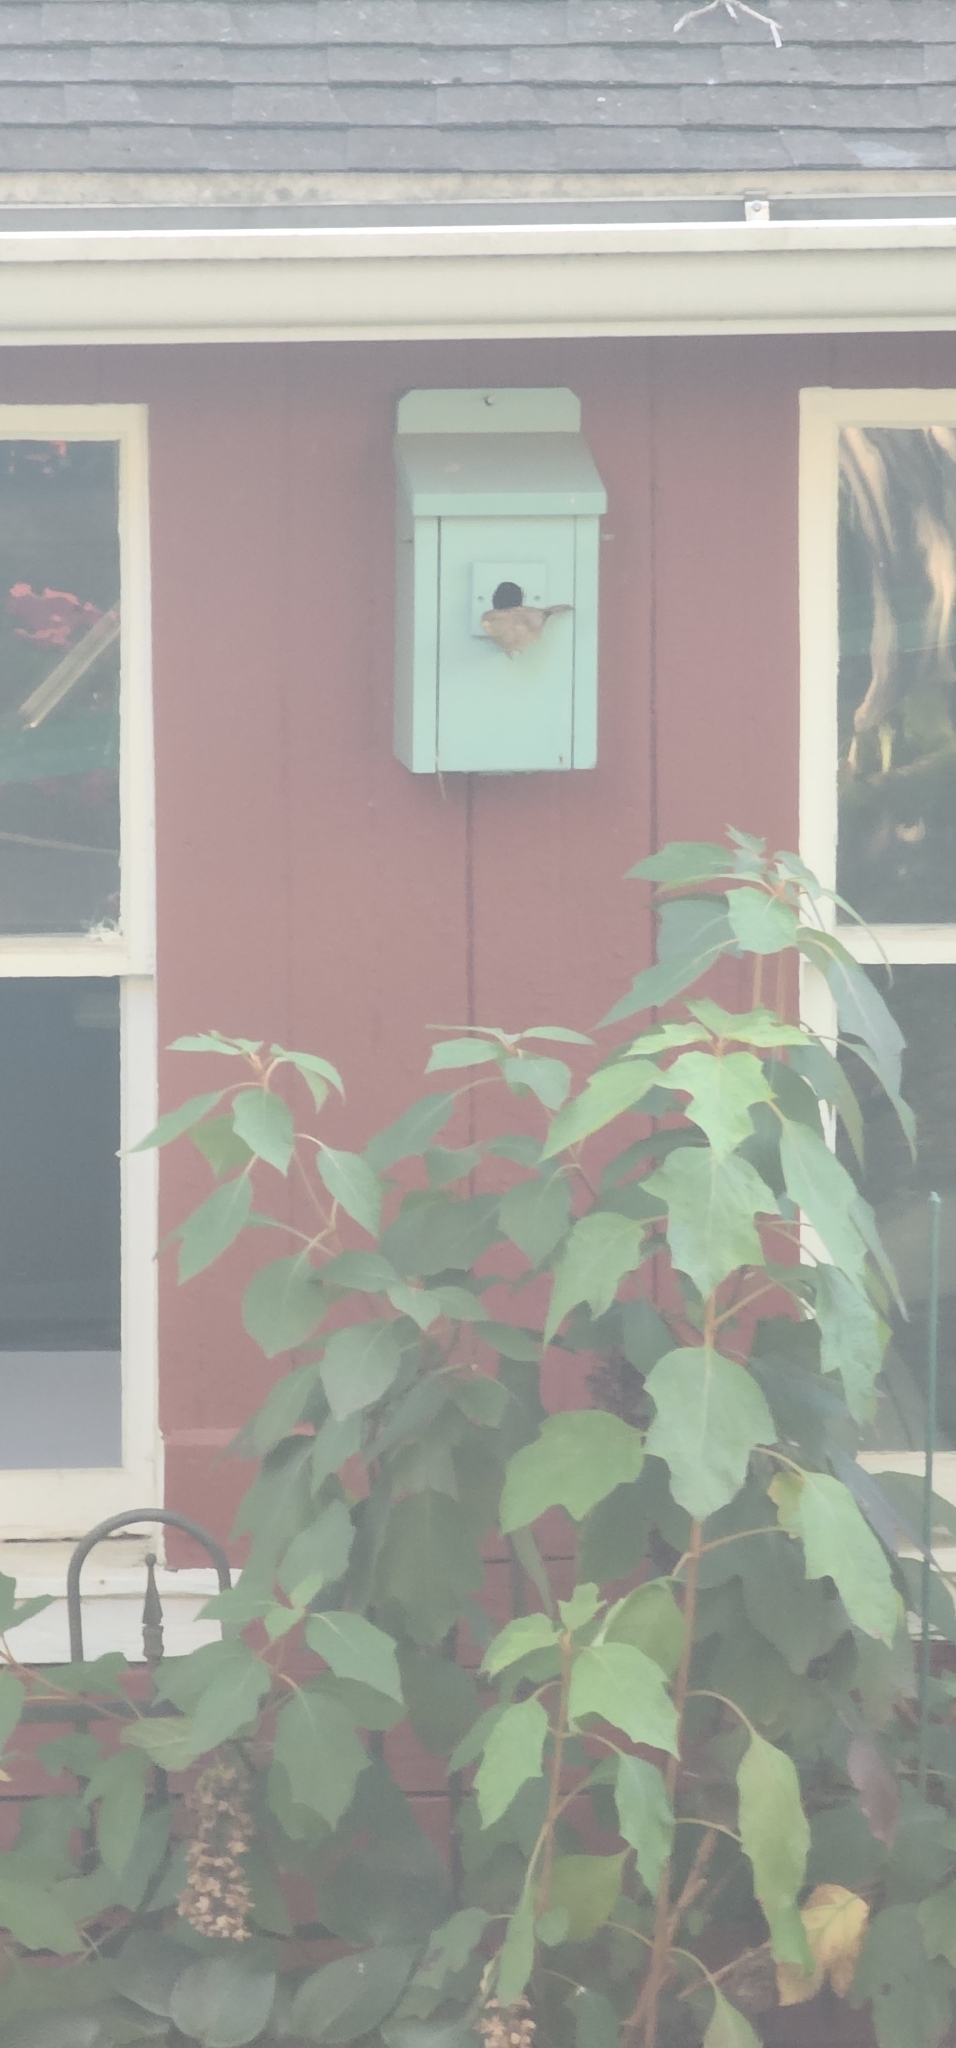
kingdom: Animalia
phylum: Chordata
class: Aves
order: Passeriformes
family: Passeridae
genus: Passer
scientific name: Passer domesticus
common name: House sparrow
